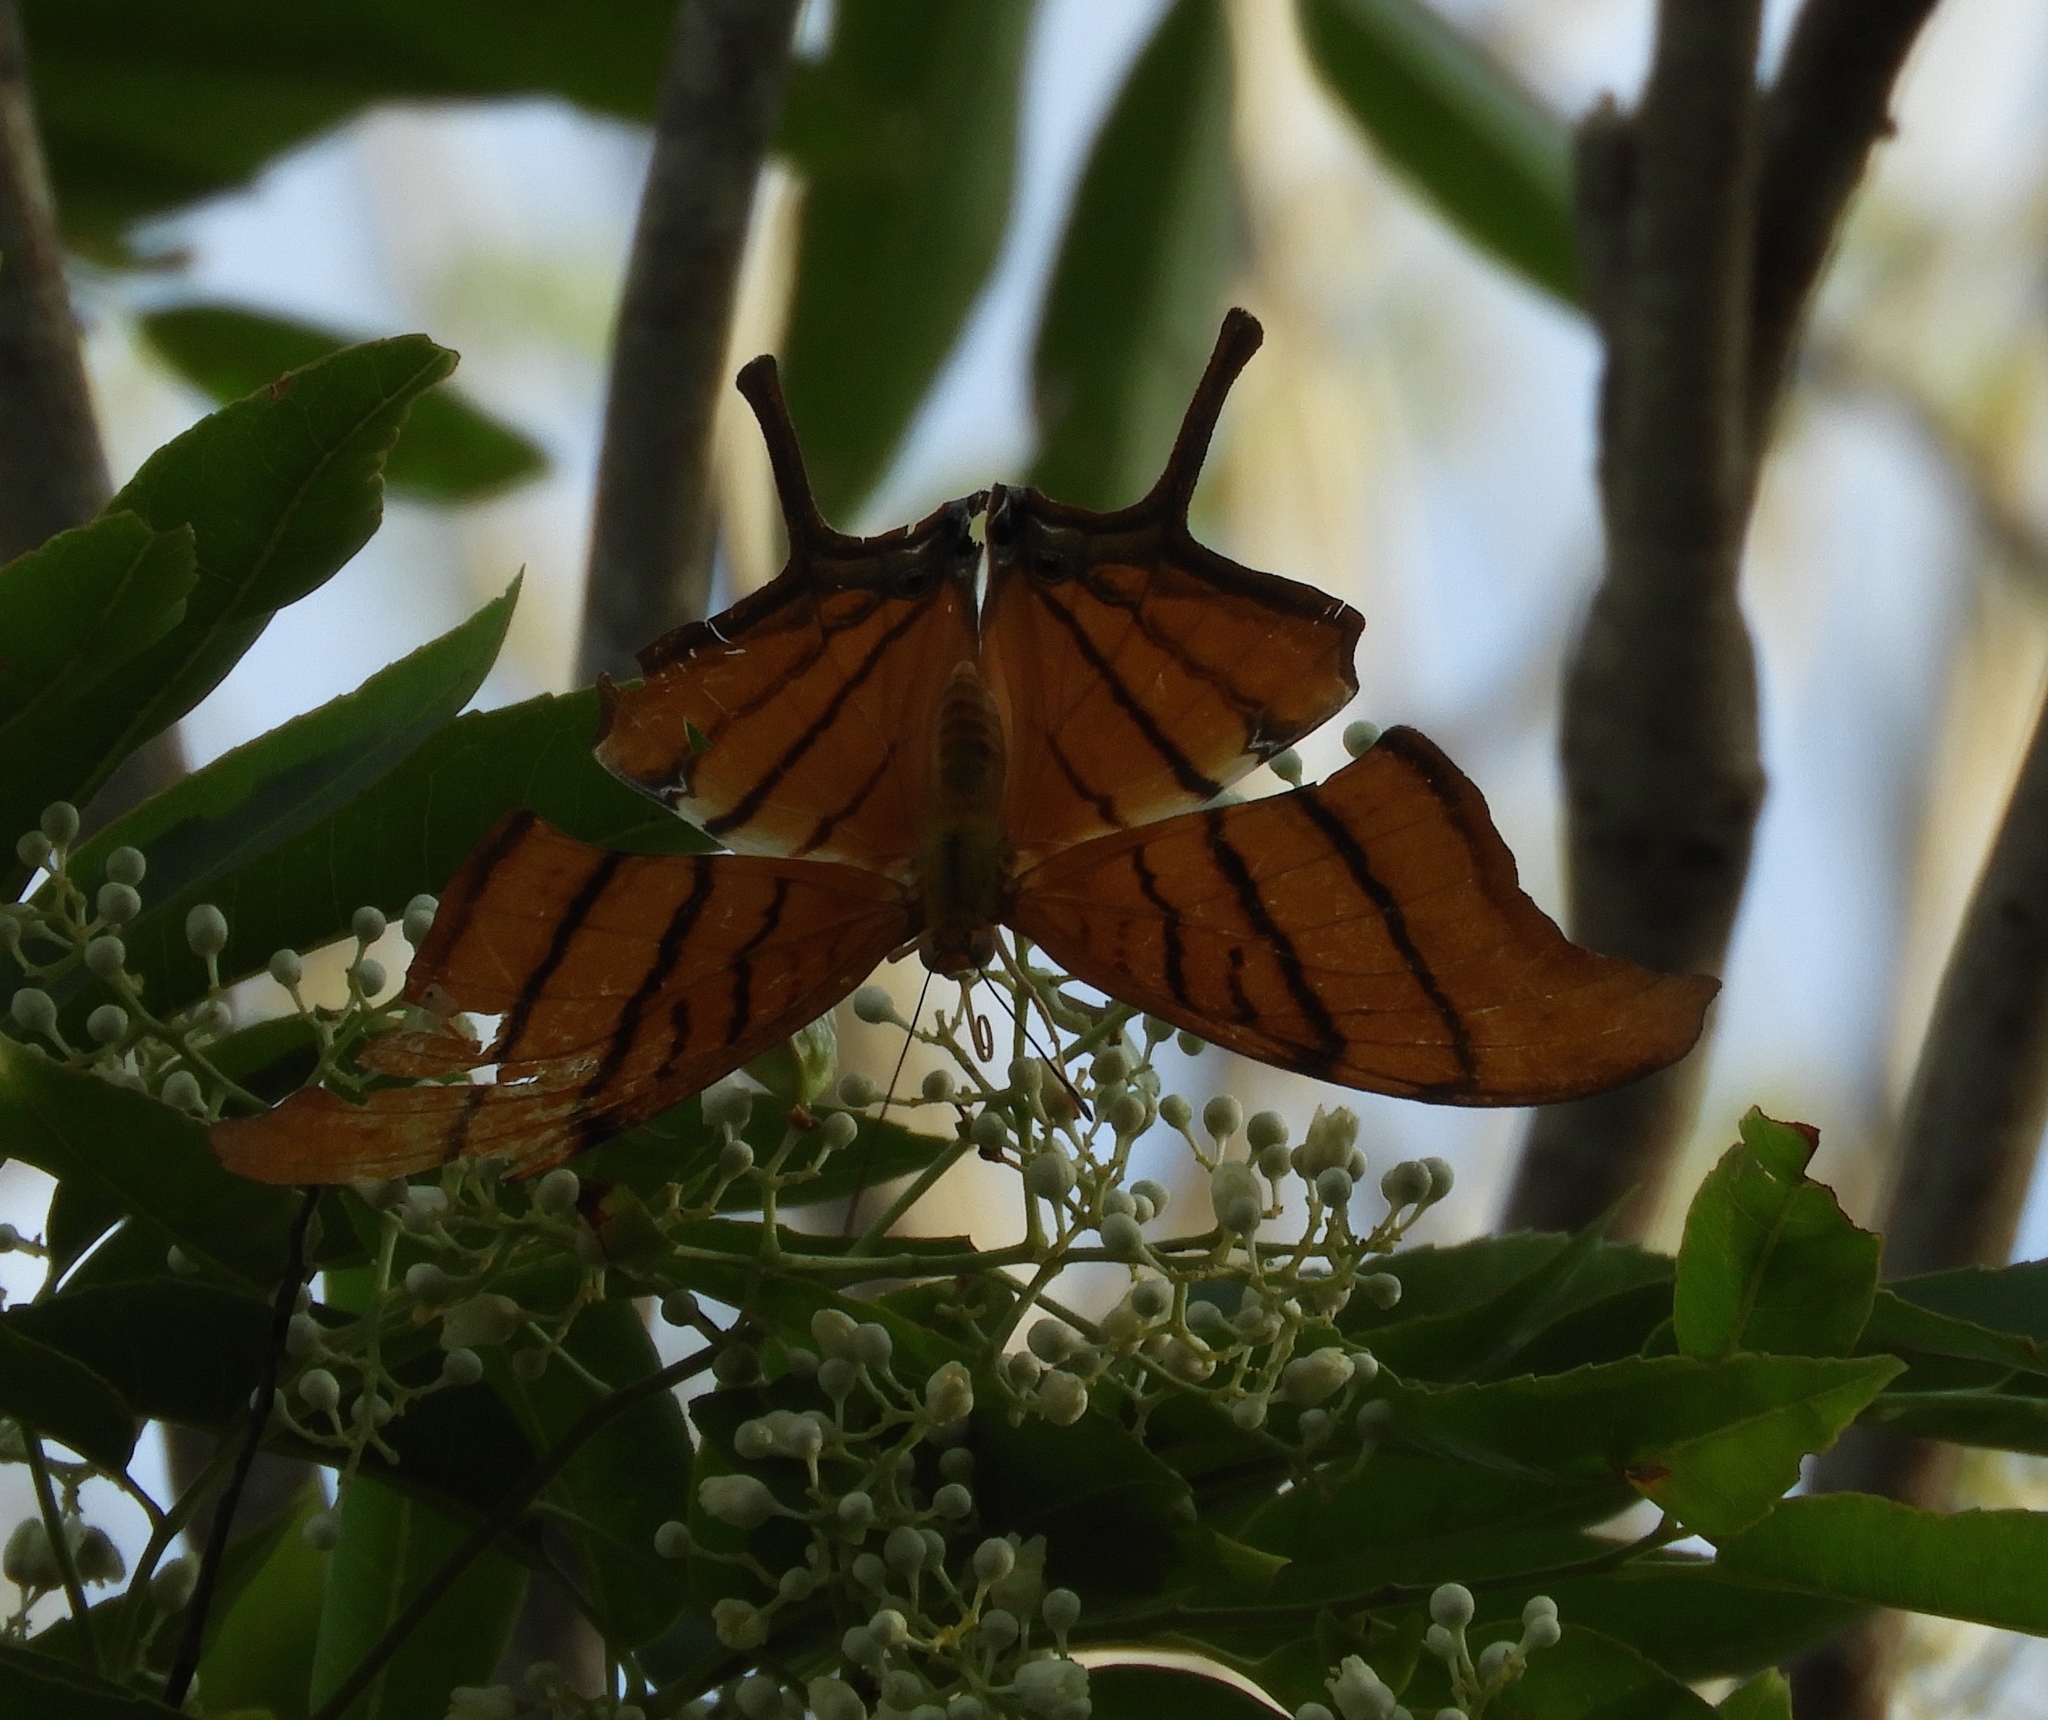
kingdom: Animalia
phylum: Arthropoda
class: Insecta
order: Lepidoptera
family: Nymphalidae
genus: Marpesia
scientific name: Marpesia petreus
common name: Red dagger wing
